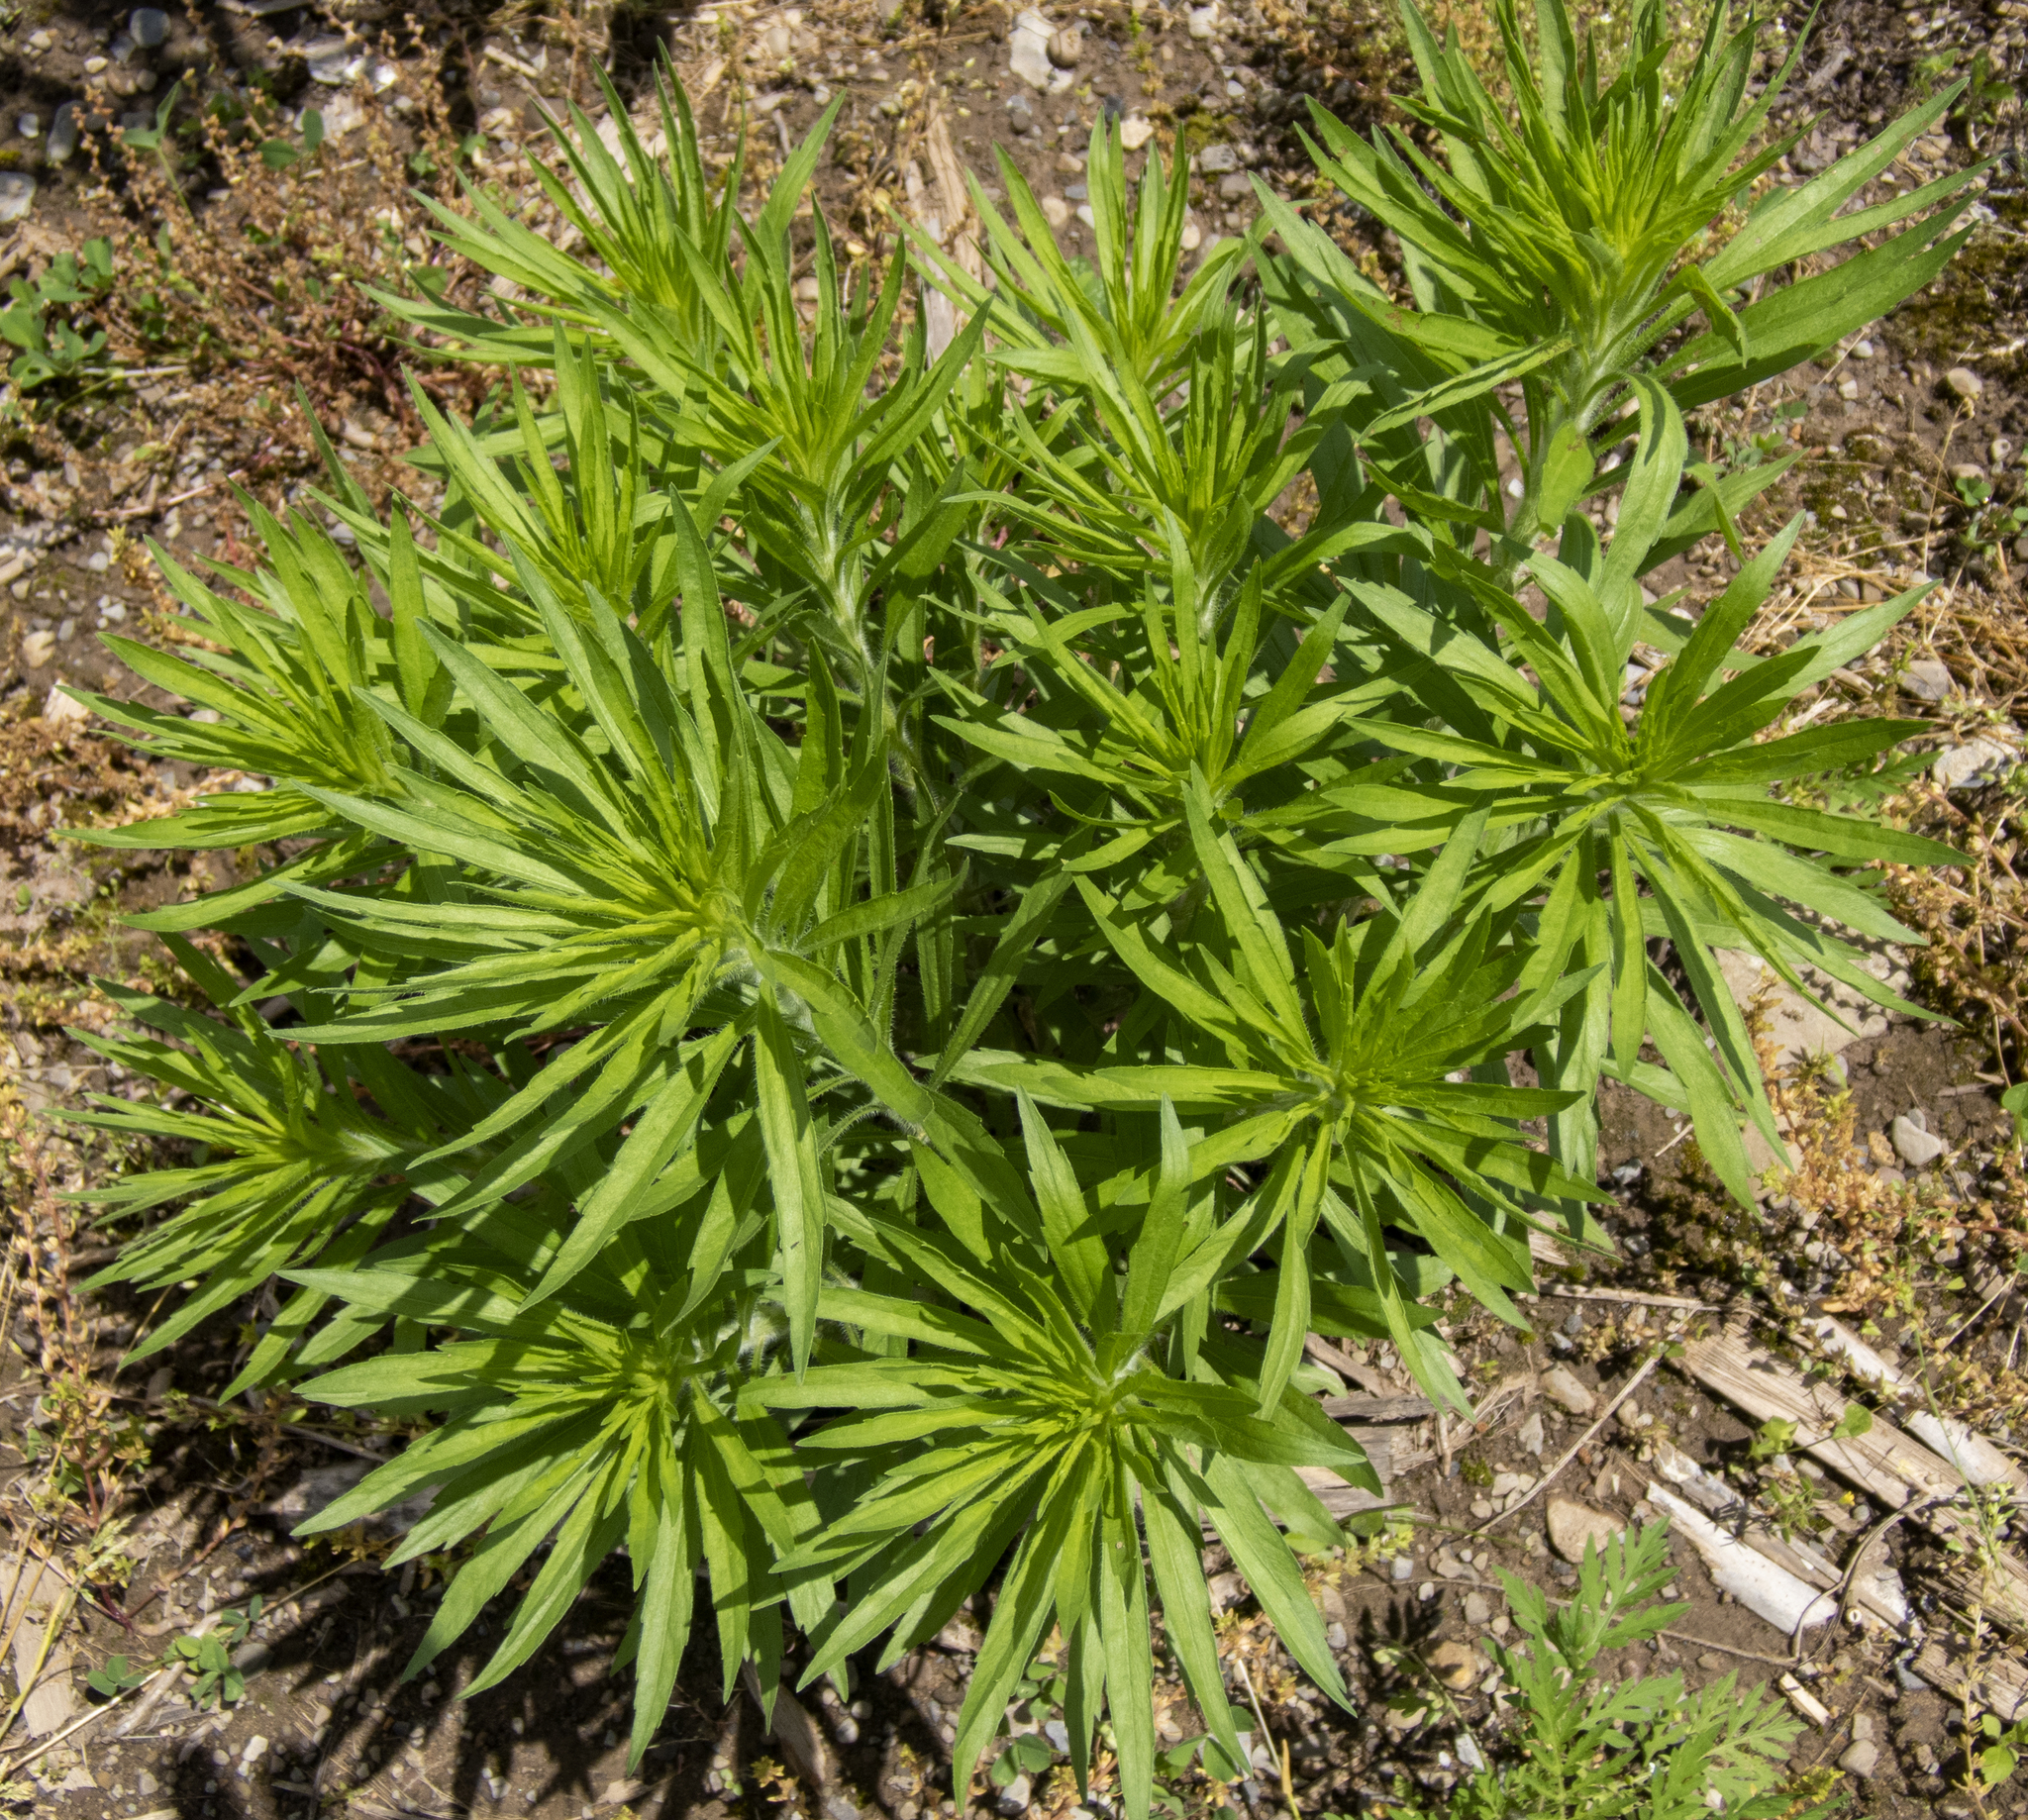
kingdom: Plantae
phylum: Tracheophyta
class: Magnoliopsida
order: Asterales
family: Asteraceae
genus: Erigeron
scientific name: Erigeron canadensis
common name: Canadian fleabane
